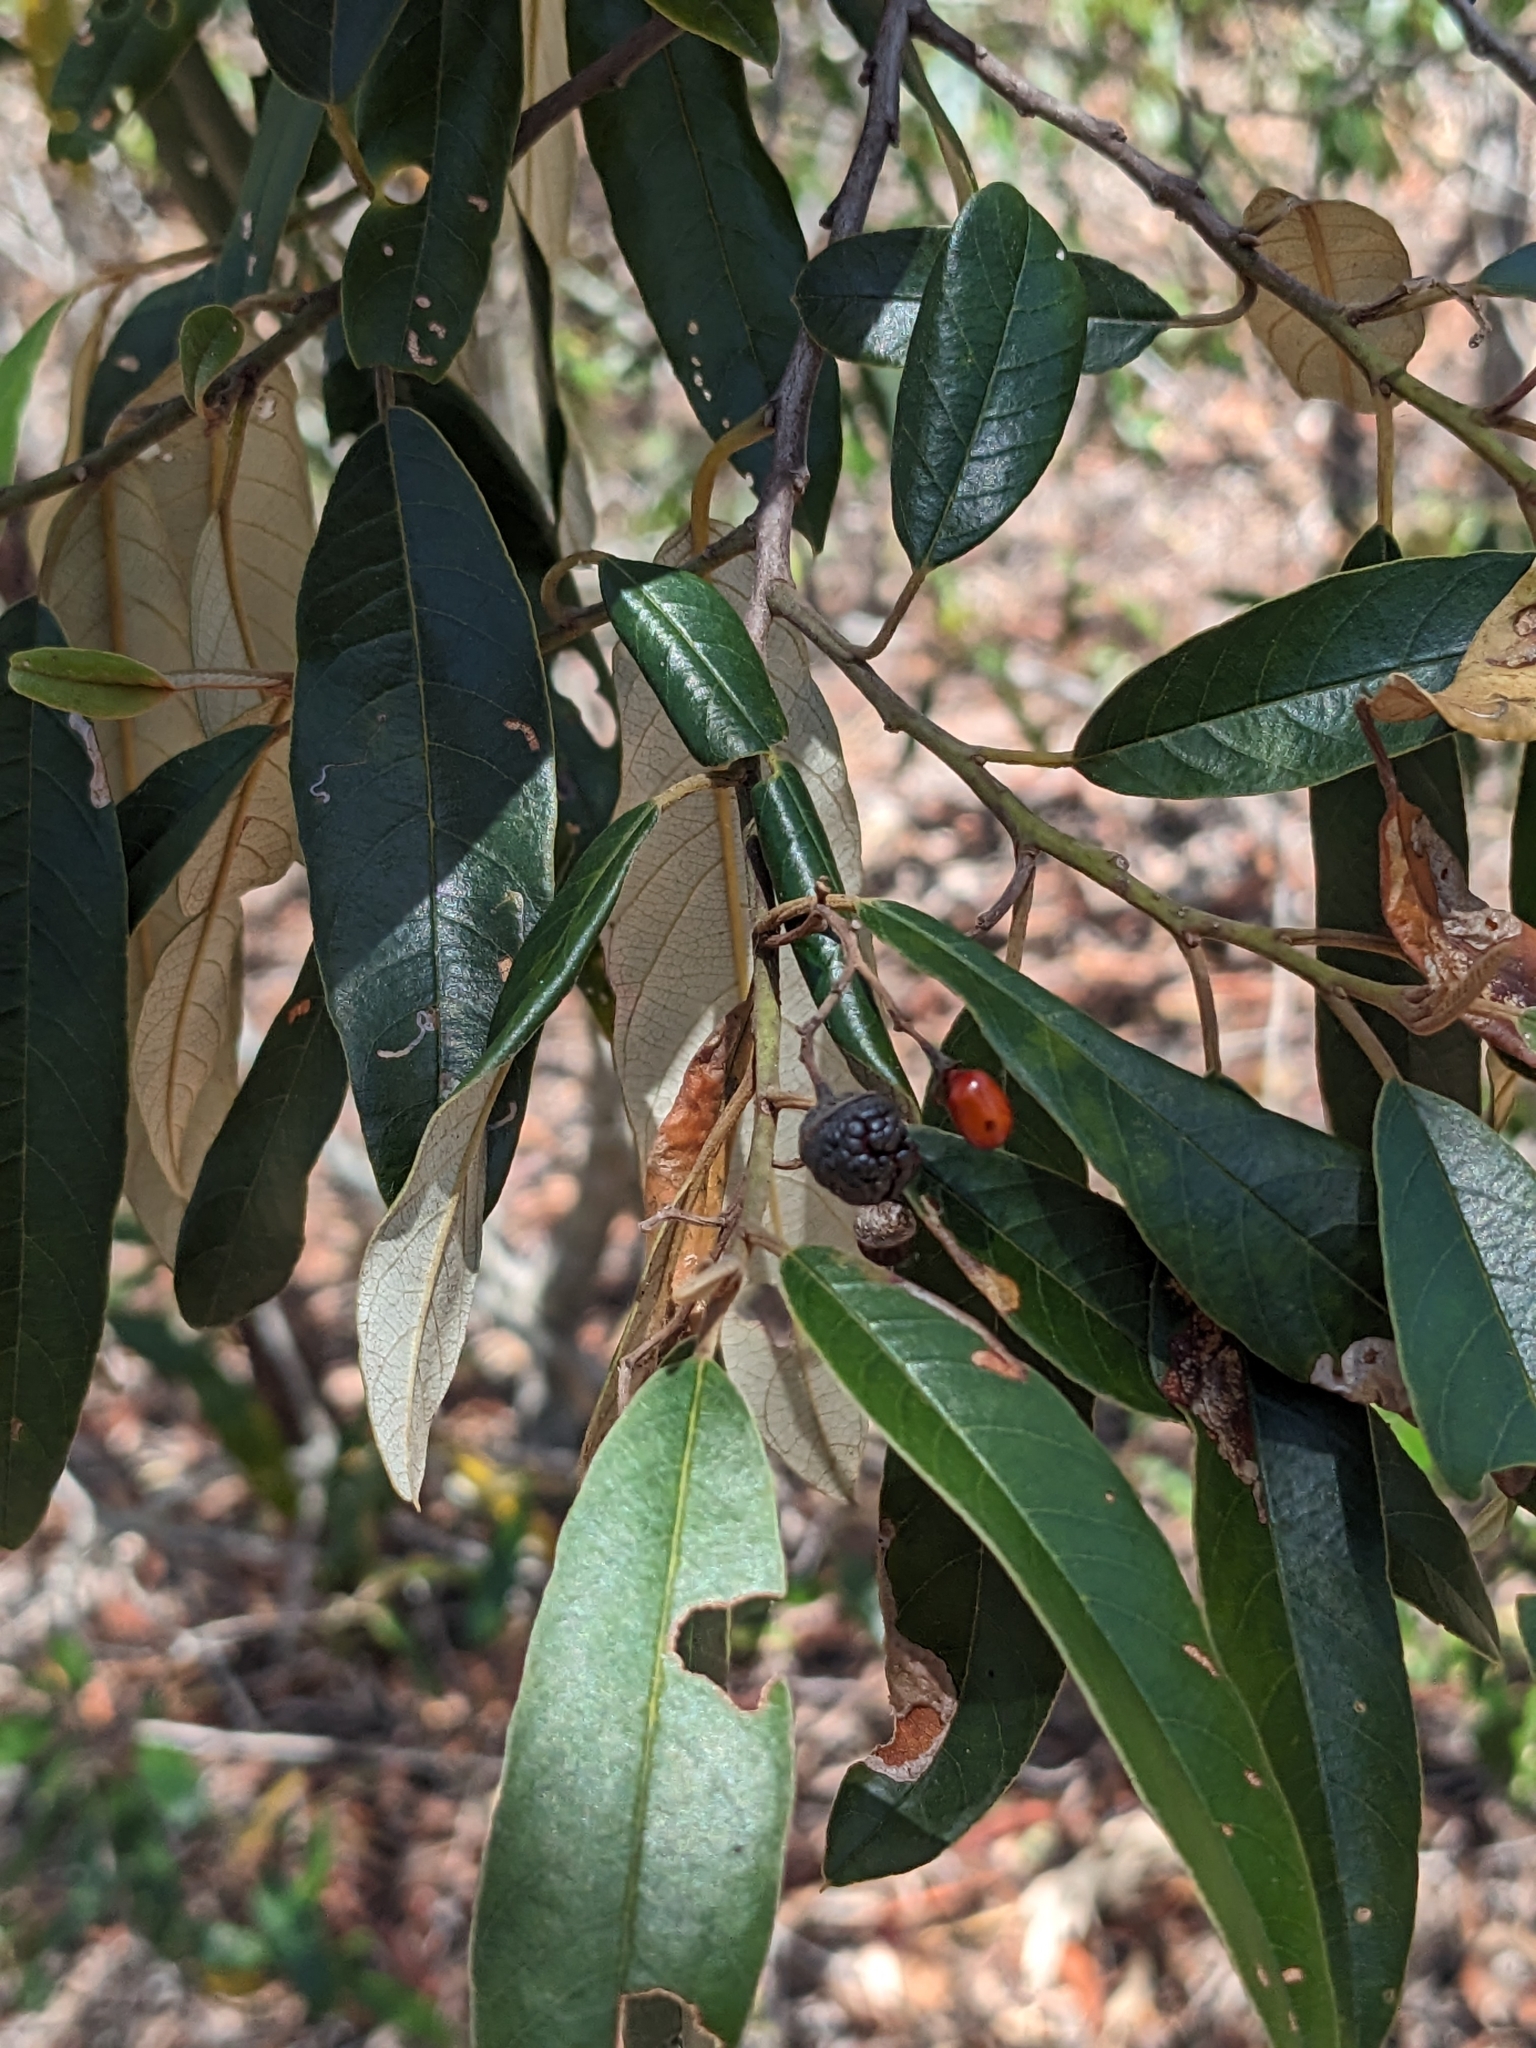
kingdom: Plantae
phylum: Tracheophyta
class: Magnoliopsida
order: Rosales
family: Rhamnaceae
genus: Alphitonia
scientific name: Alphitonia excelsa
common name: Red ash
